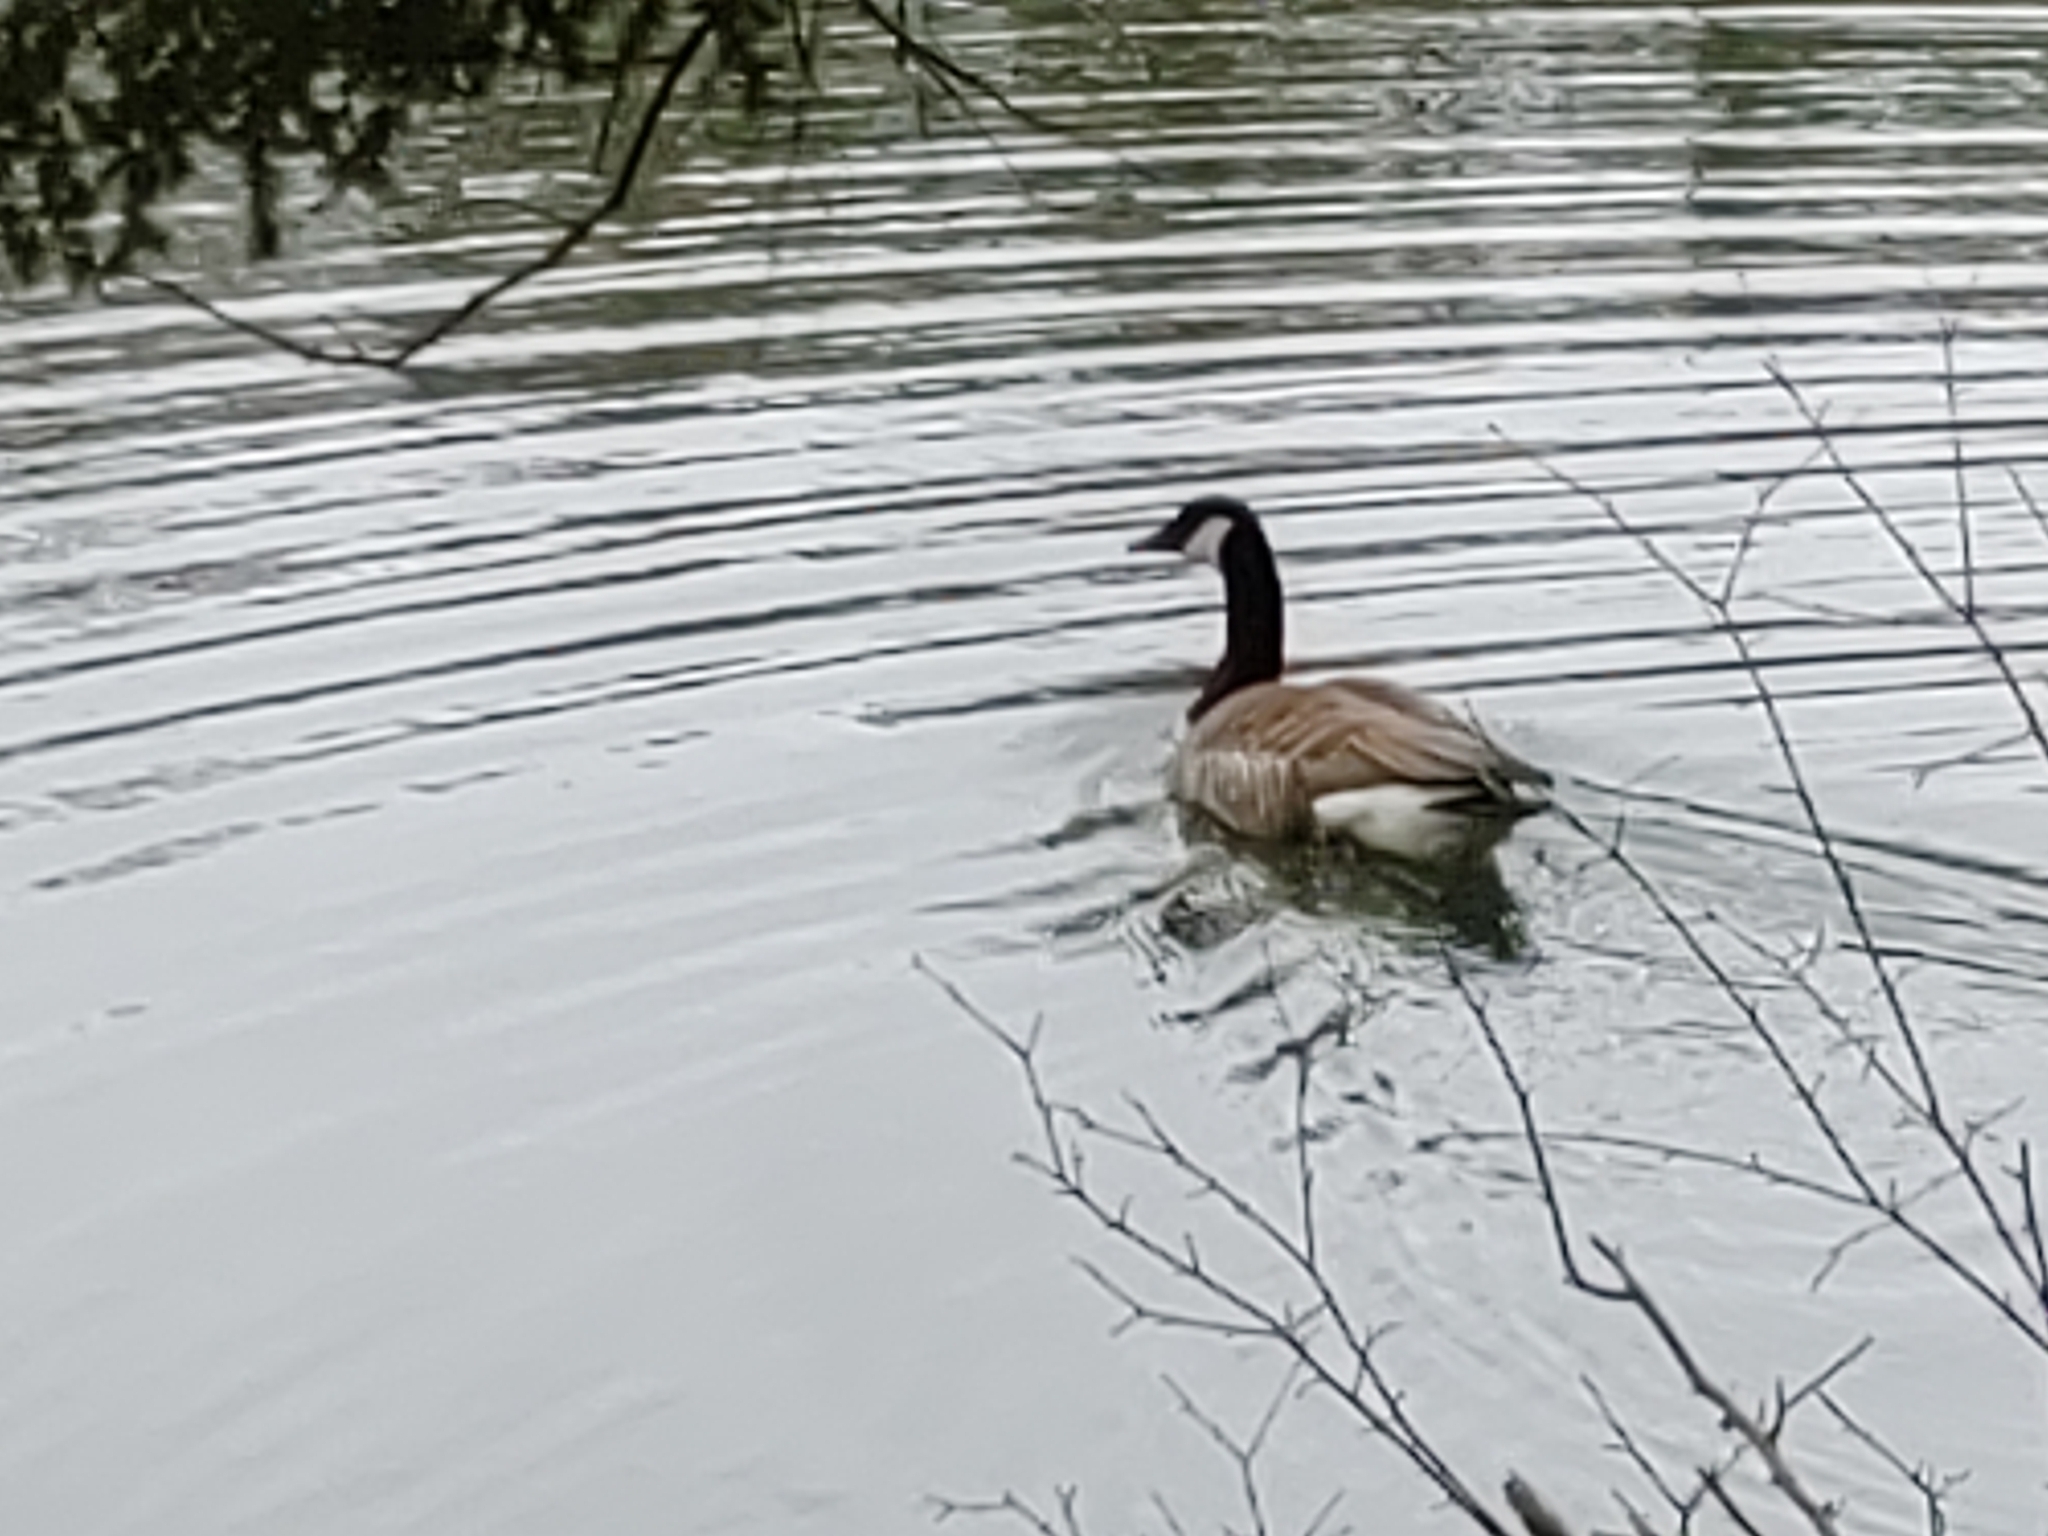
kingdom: Animalia
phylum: Chordata
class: Aves
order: Anseriformes
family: Anatidae
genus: Branta
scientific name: Branta canadensis
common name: Canada goose
